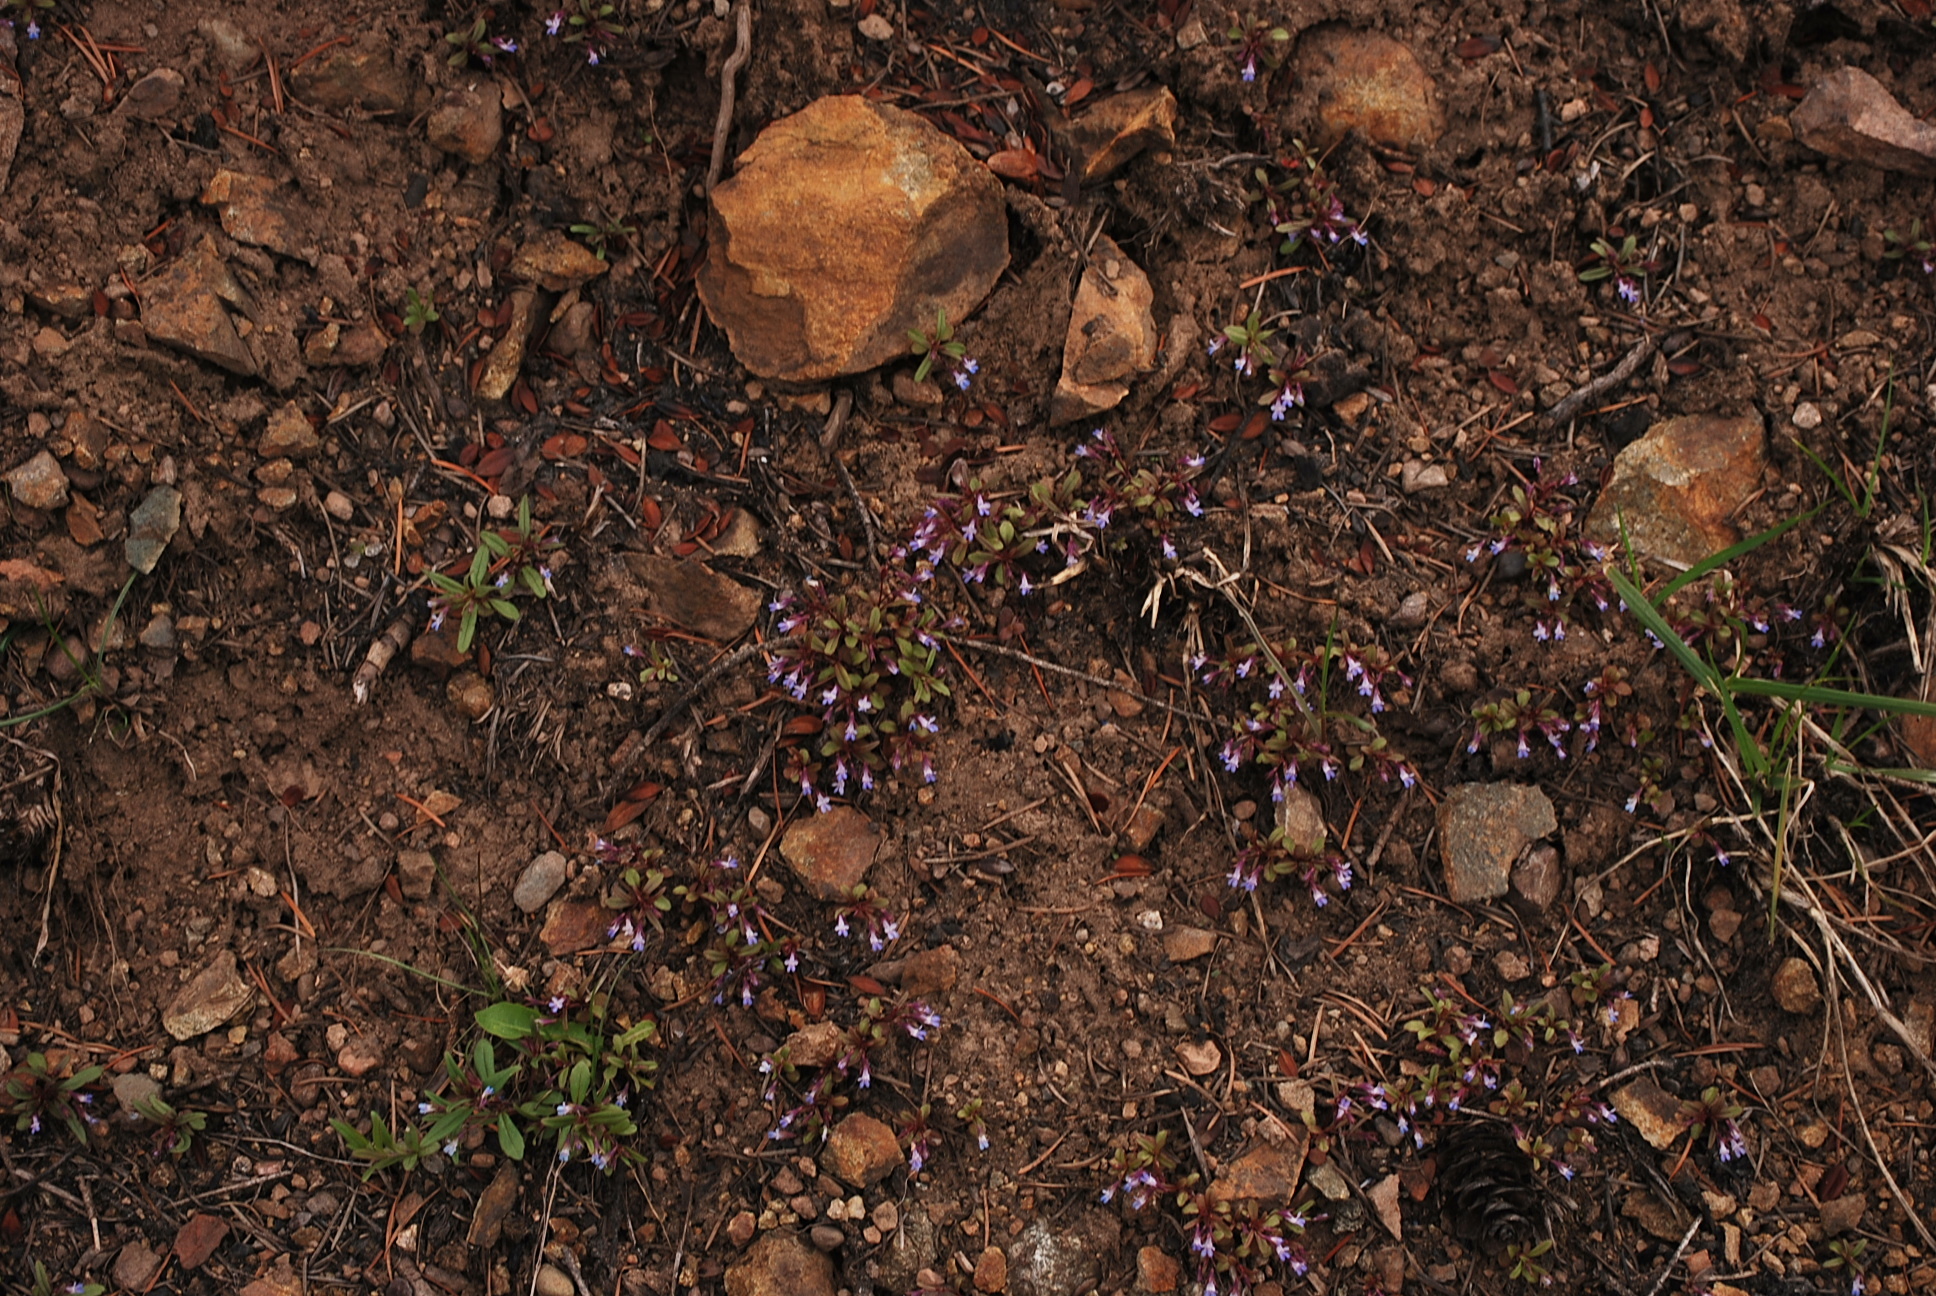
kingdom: Plantae
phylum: Tracheophyta
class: Magnoliopsida
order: Lamiales
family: Plantaginaceae
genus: Collinsia
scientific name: Collinsia parviflora
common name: Blue-lips
